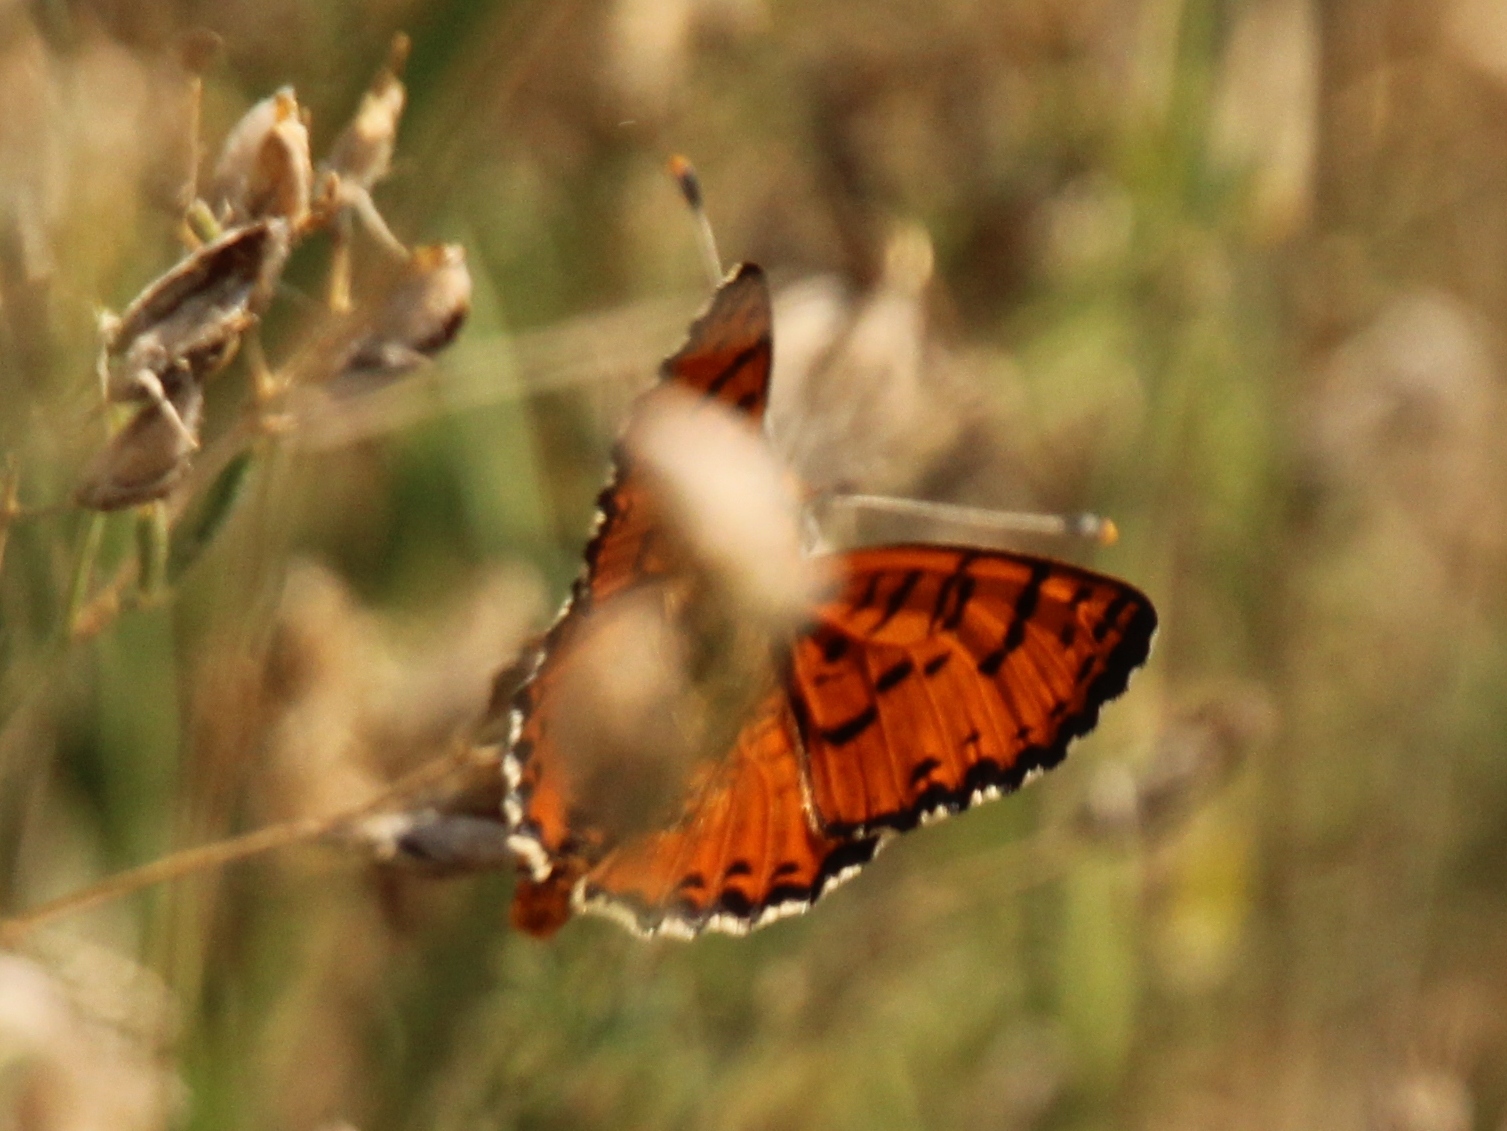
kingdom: Animalia
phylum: Arthropoda
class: Insecta
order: Lepidoptera
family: Nymphalidae
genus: Melitaea
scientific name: Melitaea didyma
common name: Spotted fritillary
